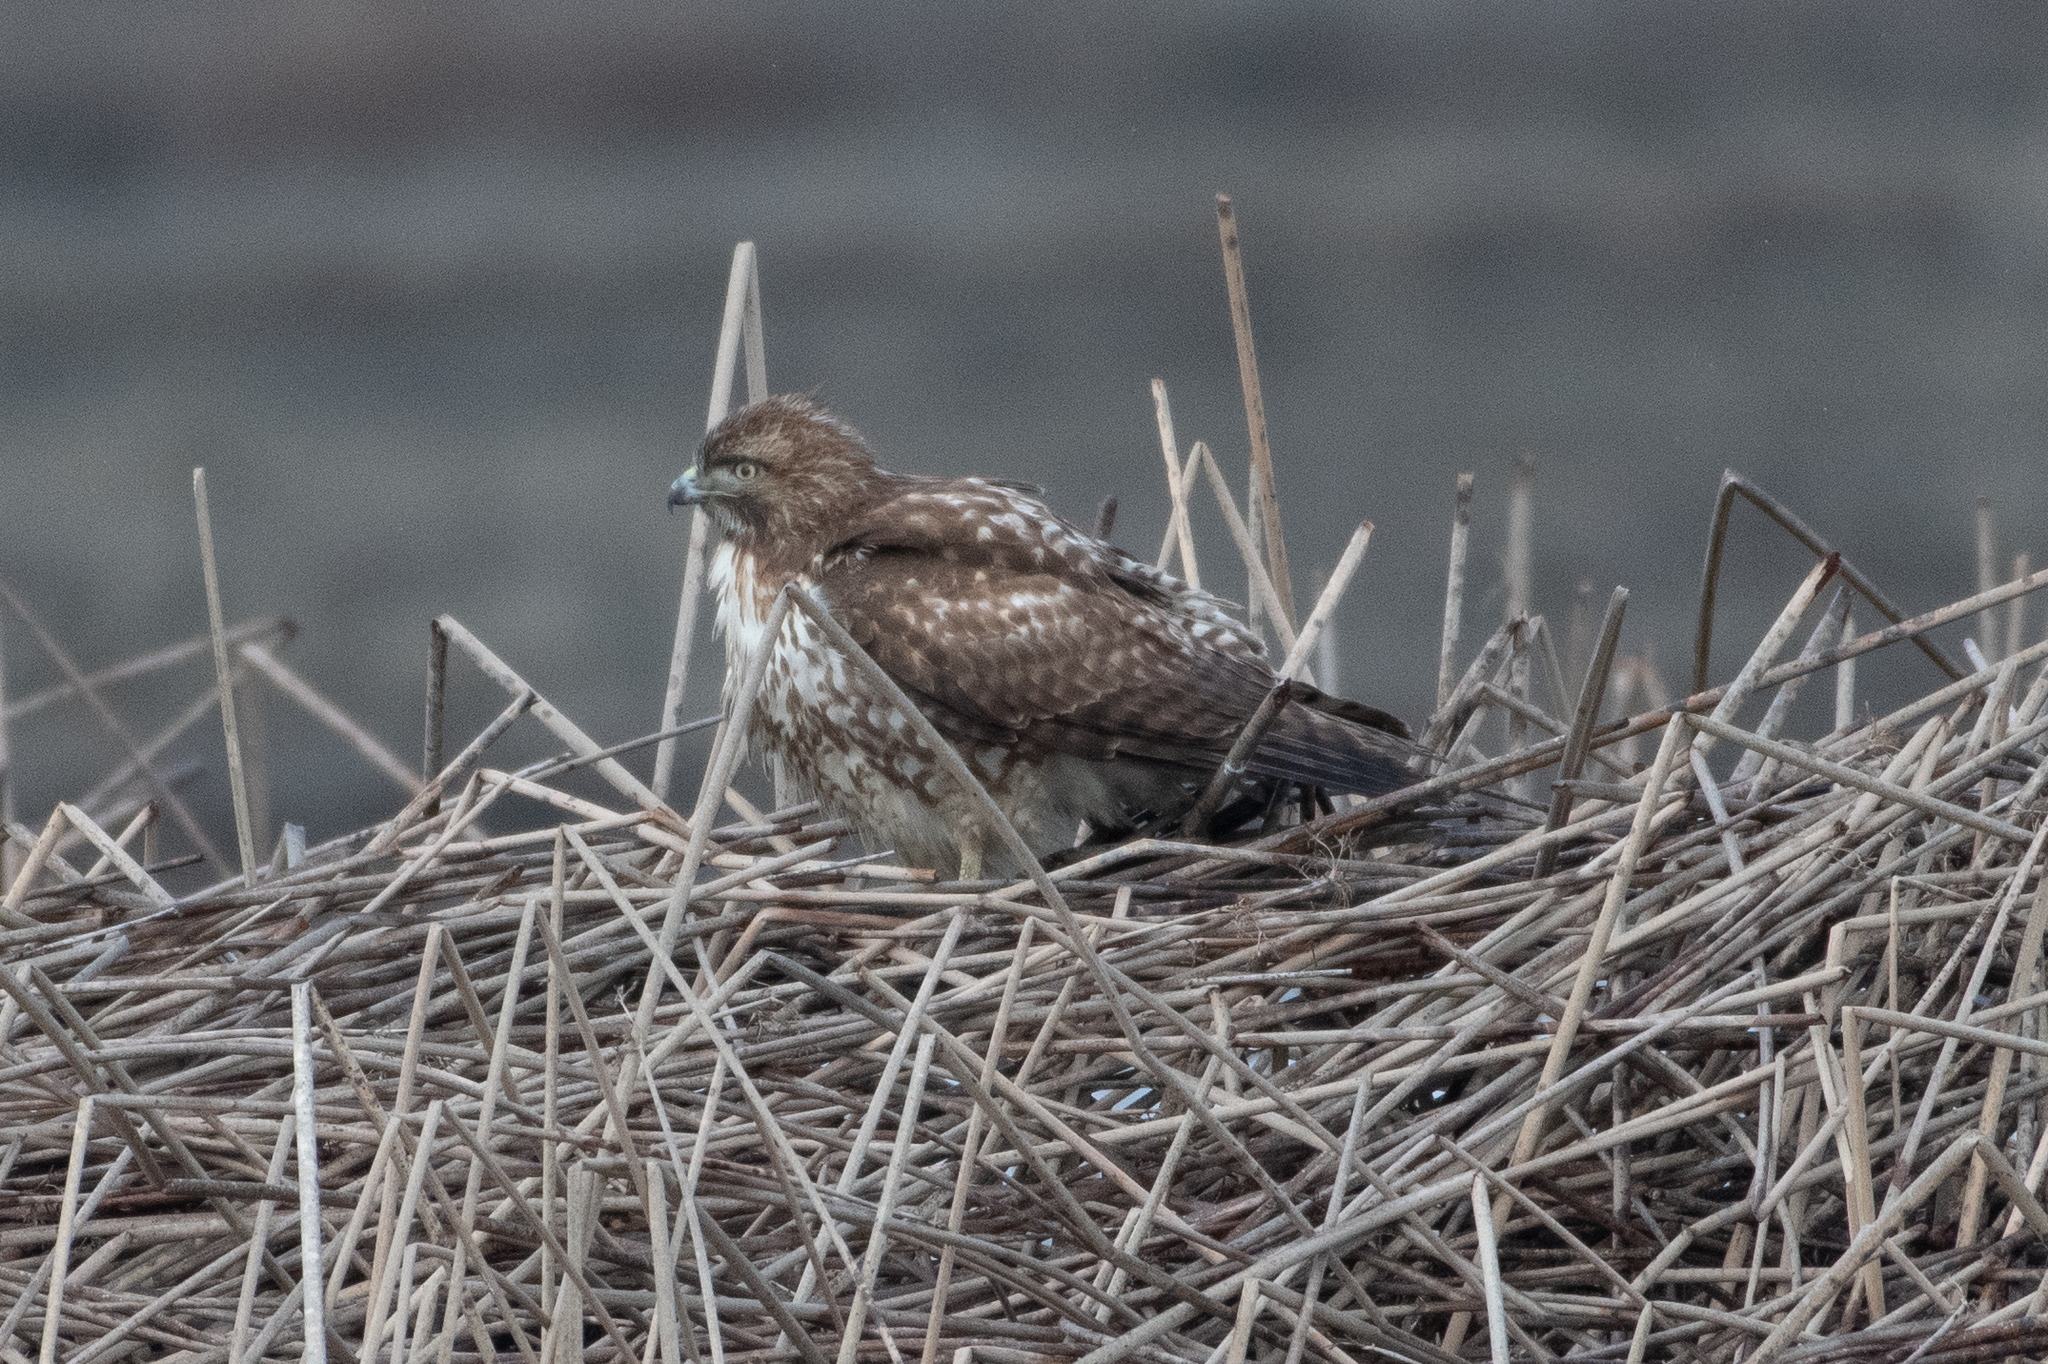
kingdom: Animalia
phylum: Chordata
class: Aves
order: Accipitriformes
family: Accipitridae
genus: Buteo
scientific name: Buteo jamaicensis
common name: Red-tailed hawk
